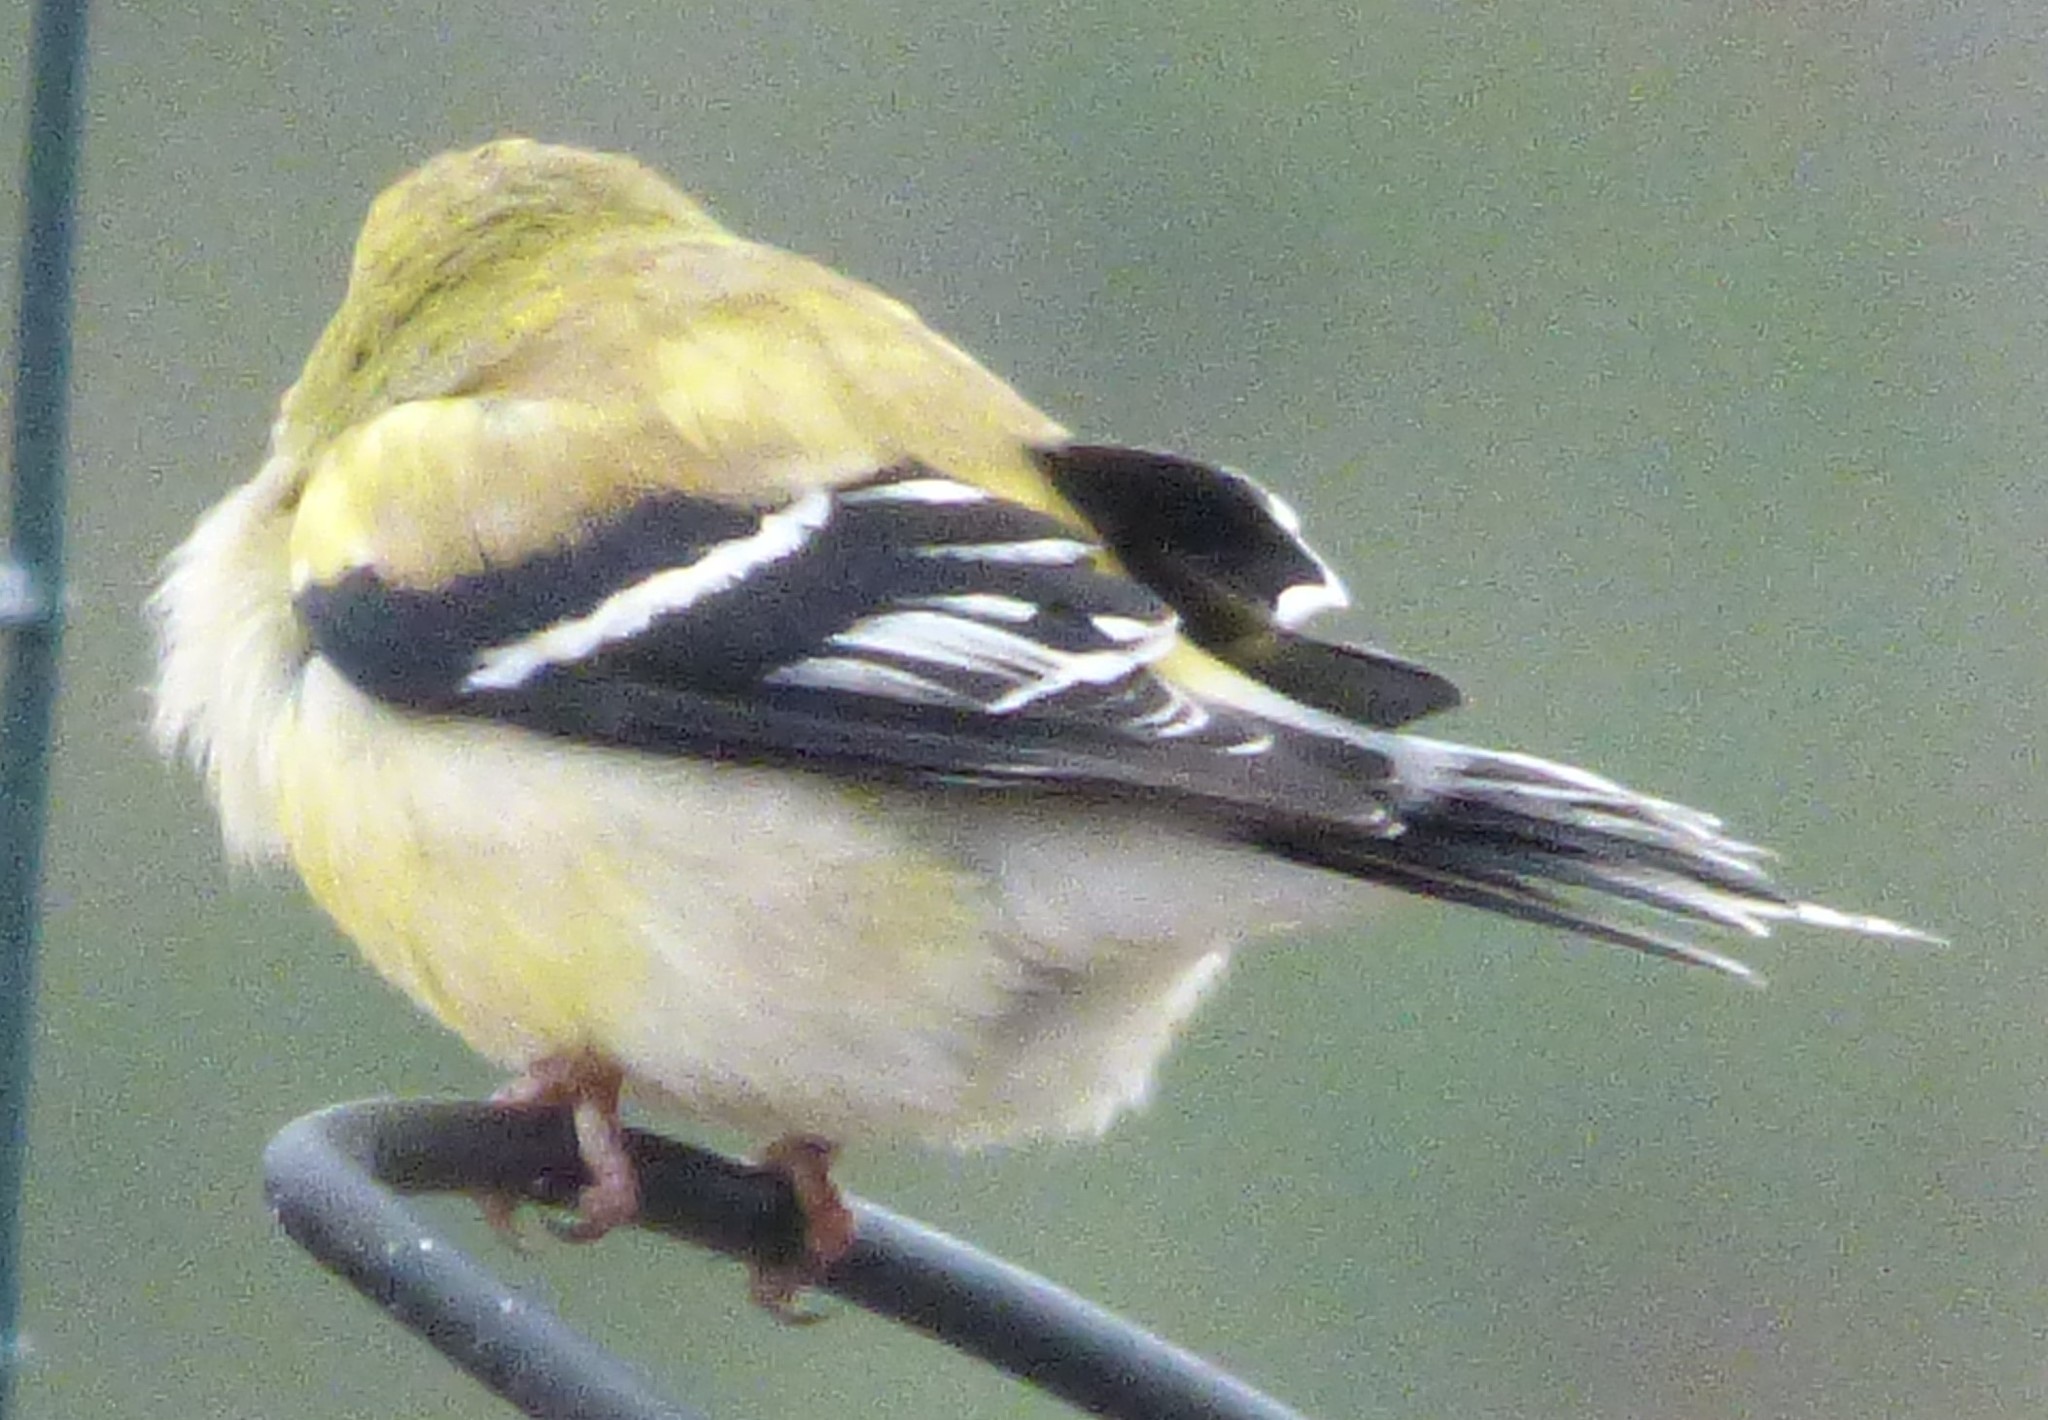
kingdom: Animalia
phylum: Chordata
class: Aves
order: Passeriformes
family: Fringillidae
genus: Spinus
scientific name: Spinus tristis
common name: American goldfinch
